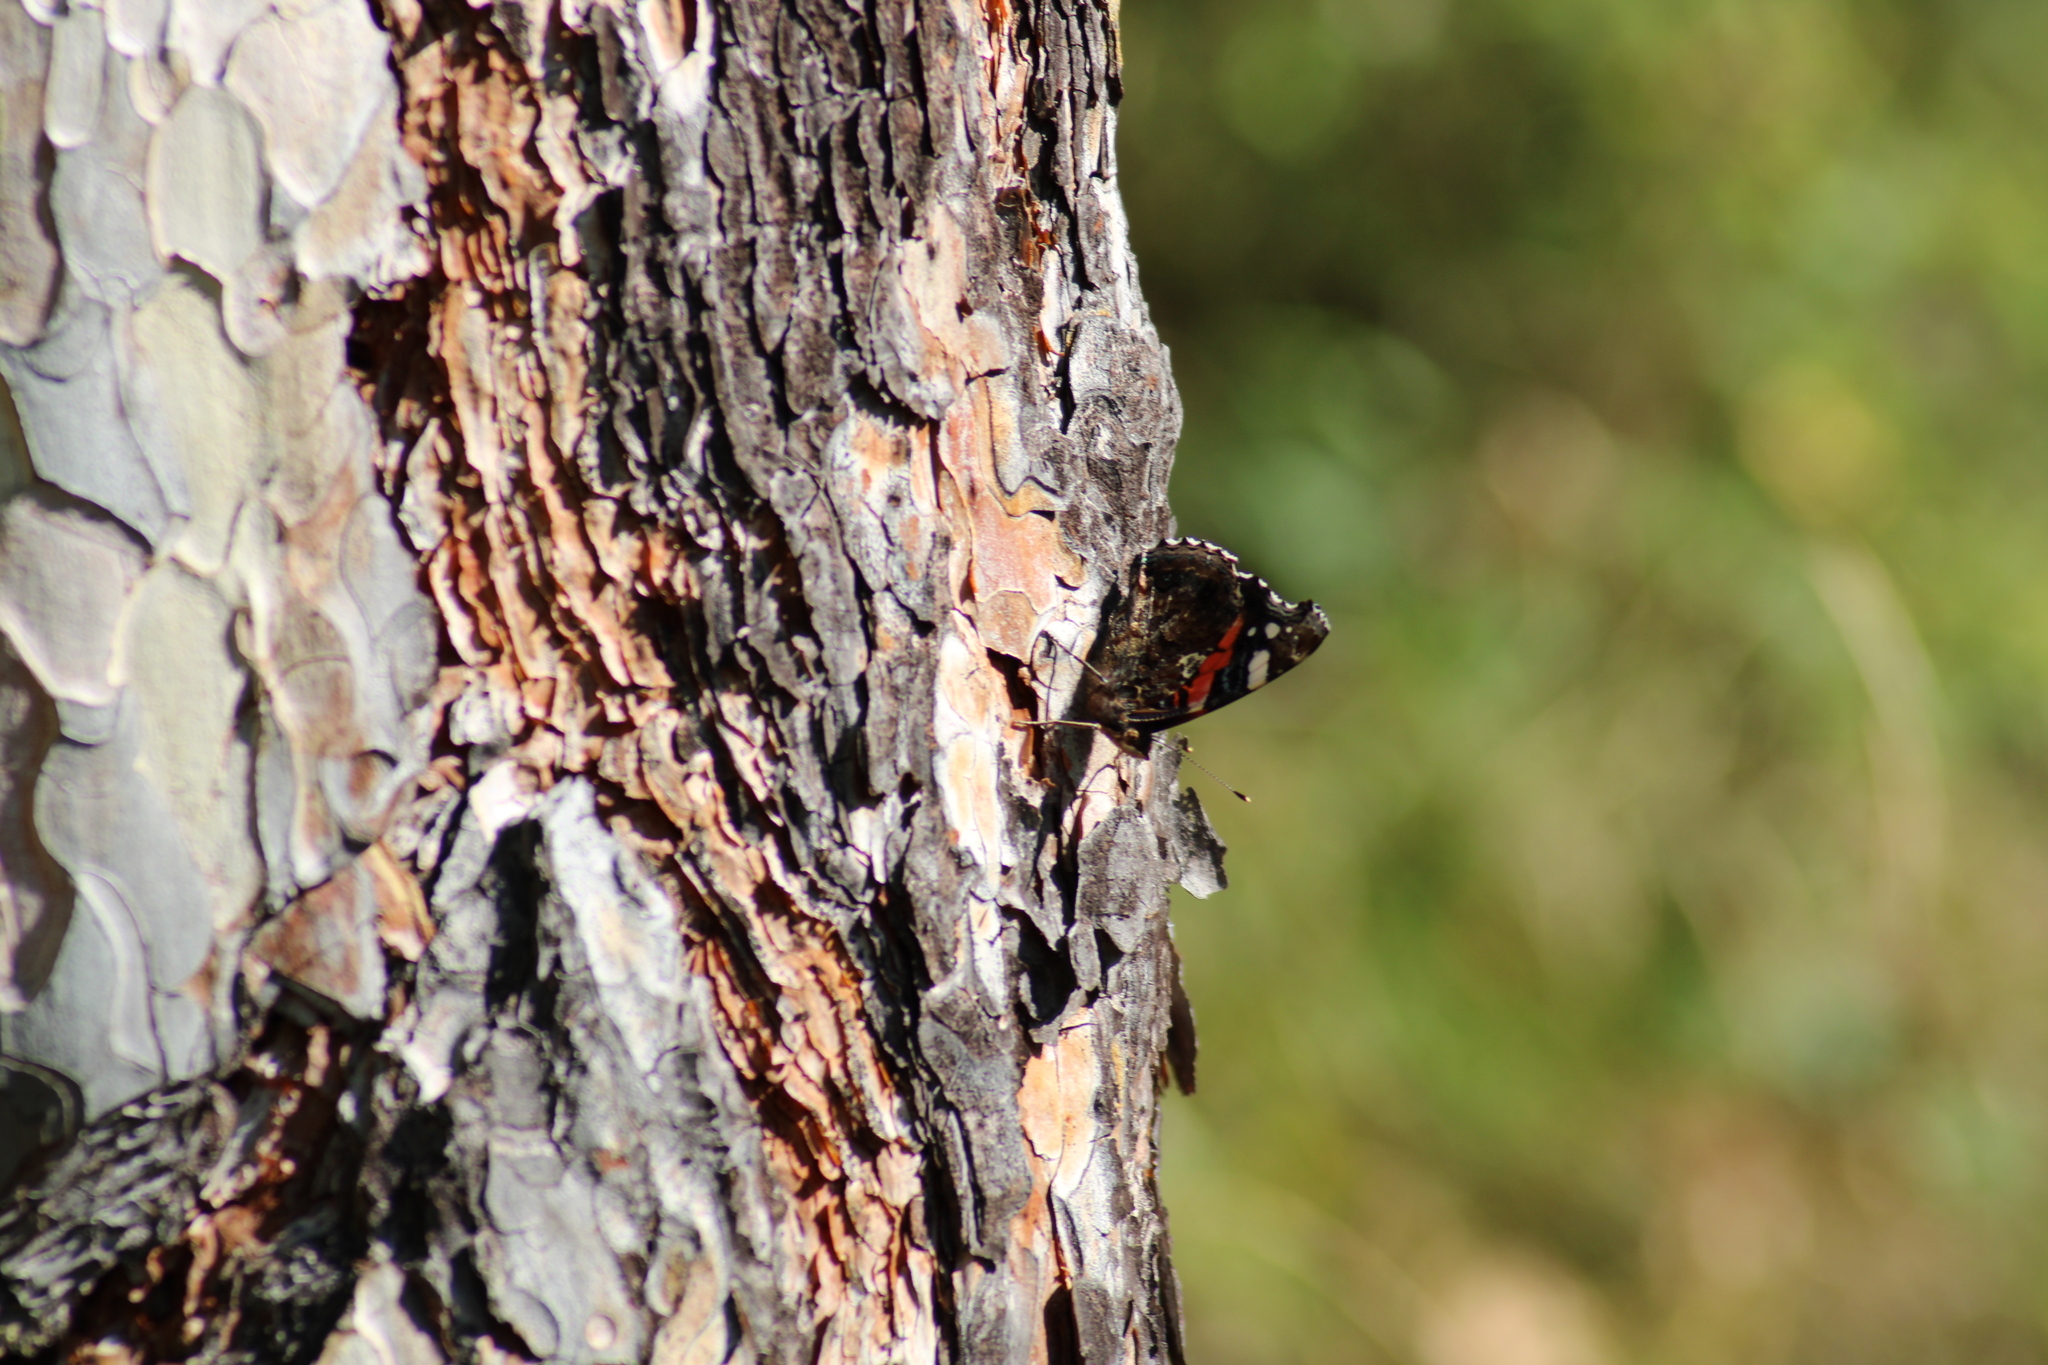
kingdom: Animalia
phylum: Arthropoda
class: Insecta
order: Lepidoptera
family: Nymphalidae
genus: Vanessa
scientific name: Vanessa atalanta
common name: Red admiral
